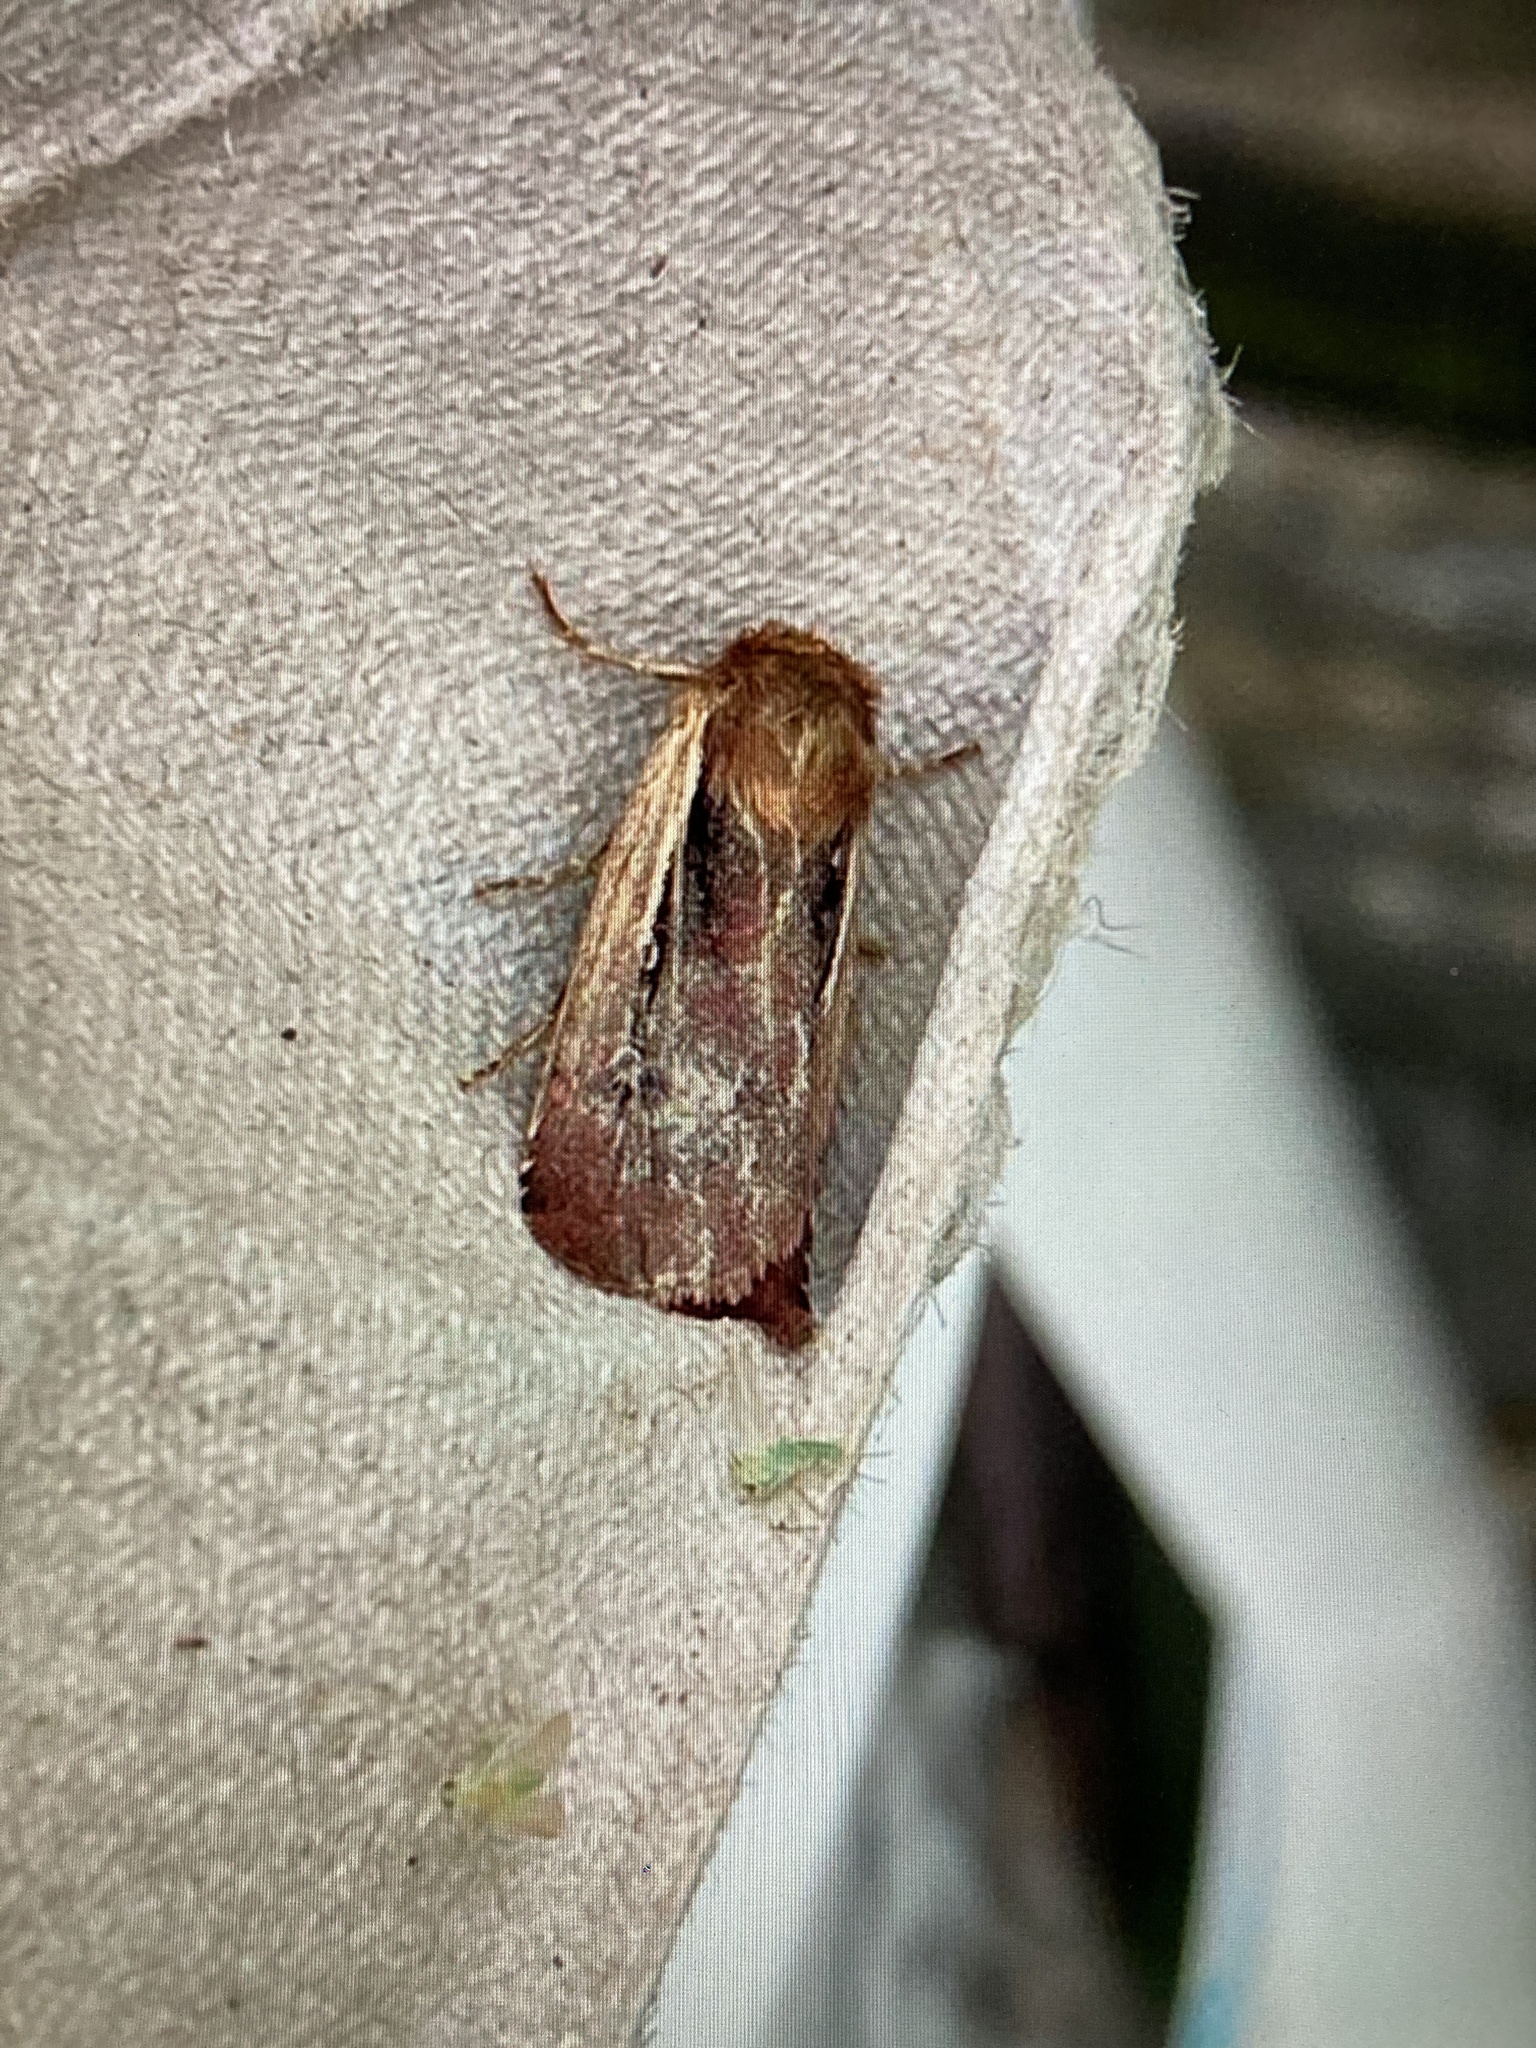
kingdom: Animalia
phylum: Arthropoda
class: Insecta
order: Lepidoptera
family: Noctuidae
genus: Ochropleura
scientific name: Ochropleura plecta
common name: Flame shoulder
